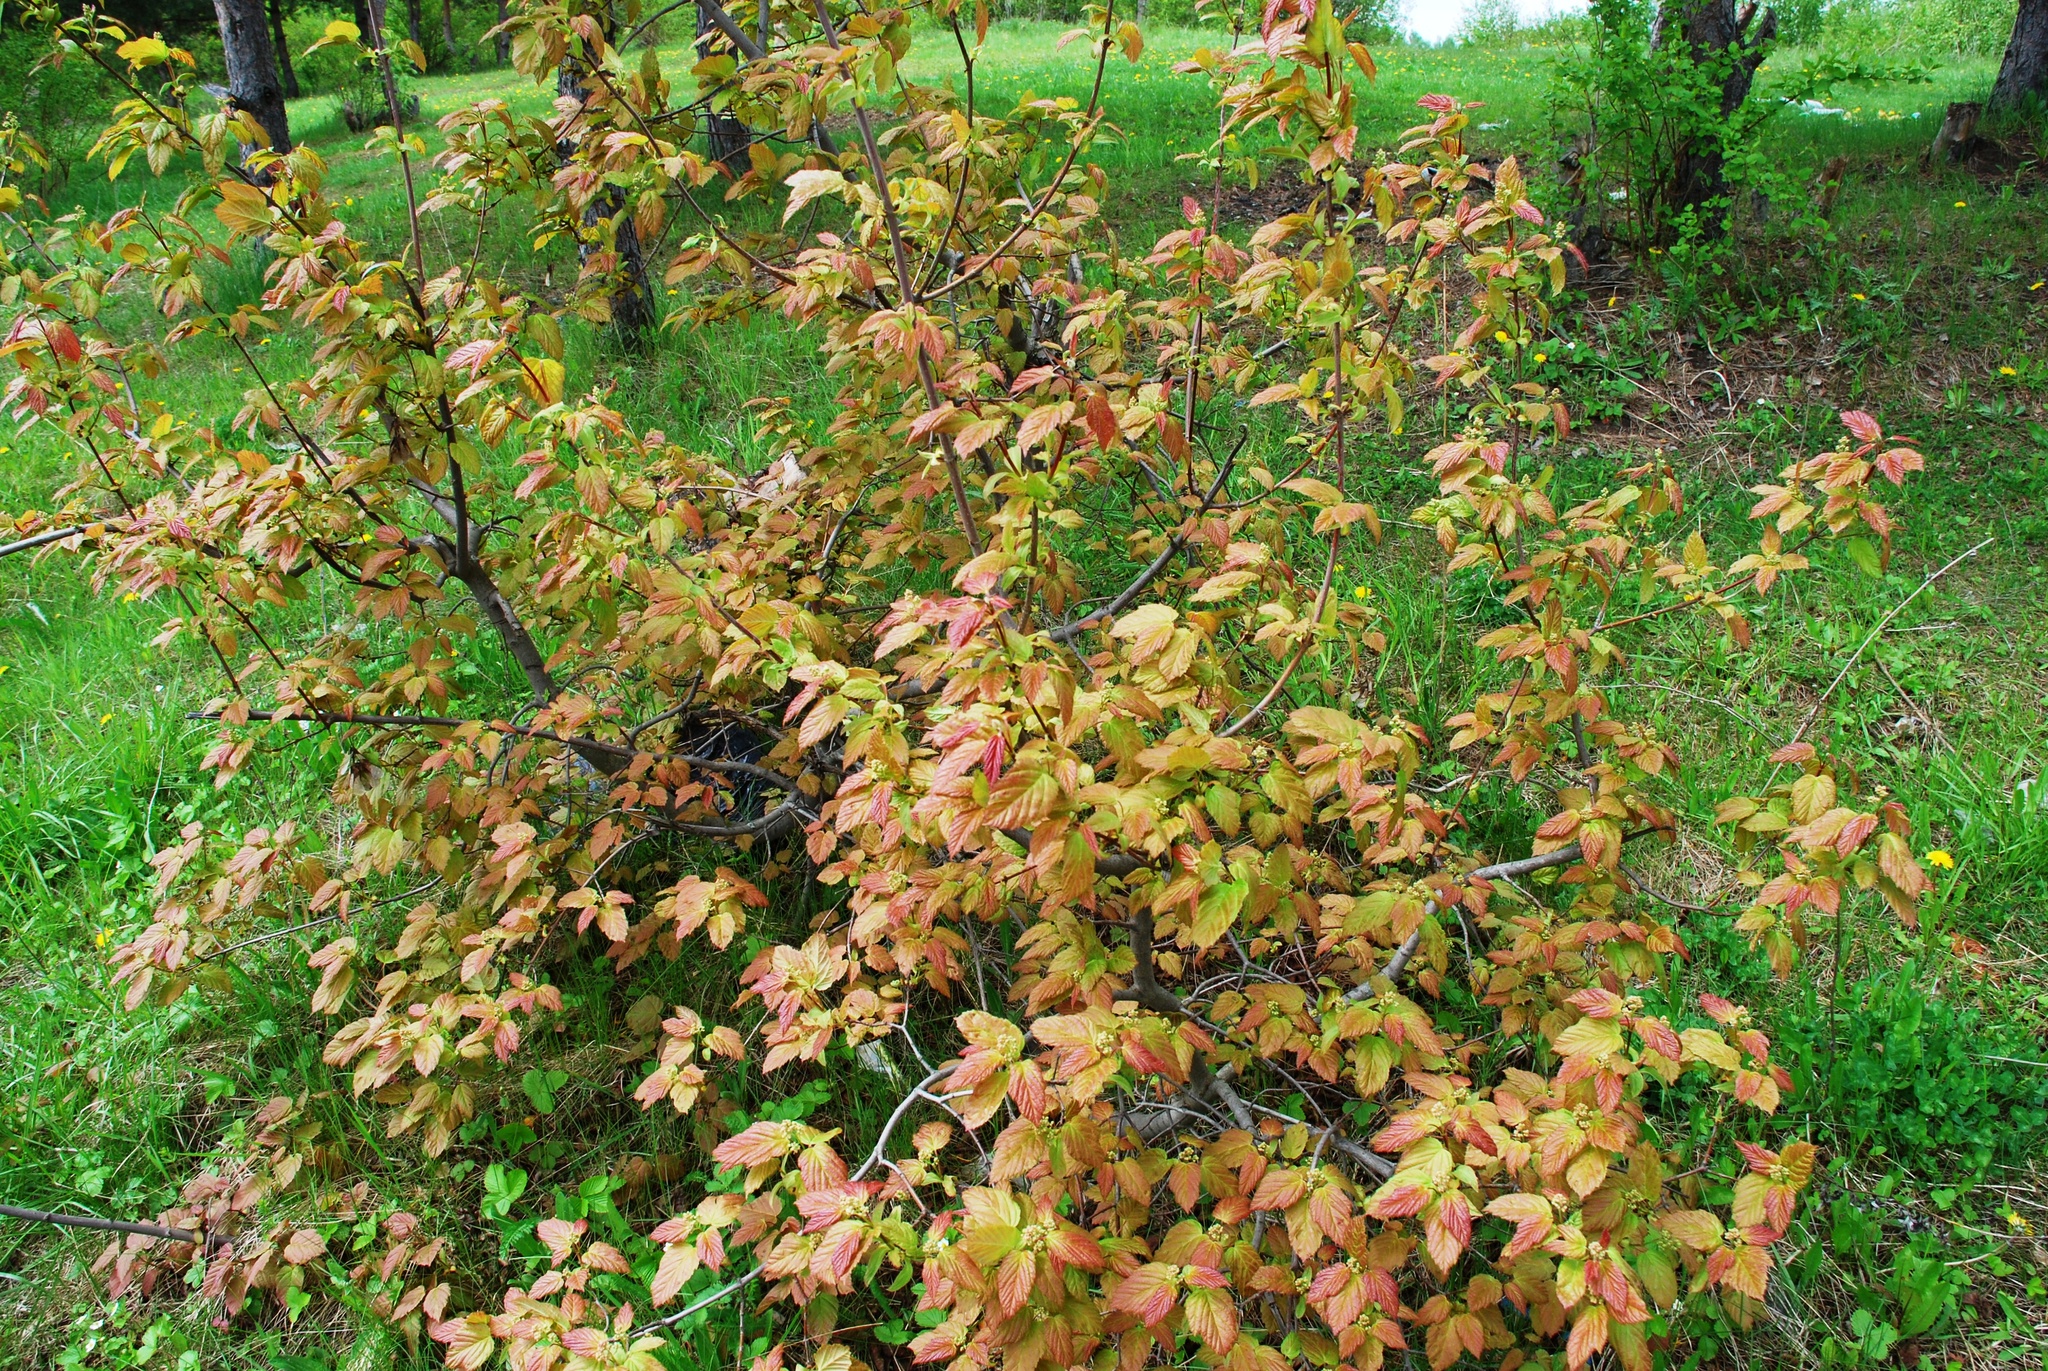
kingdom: Plantae
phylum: Tracheophyta
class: Magnoliopsida
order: Sapindales
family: Sapindaceae
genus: Acer
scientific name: Acer tataricum
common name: Tartar maple
